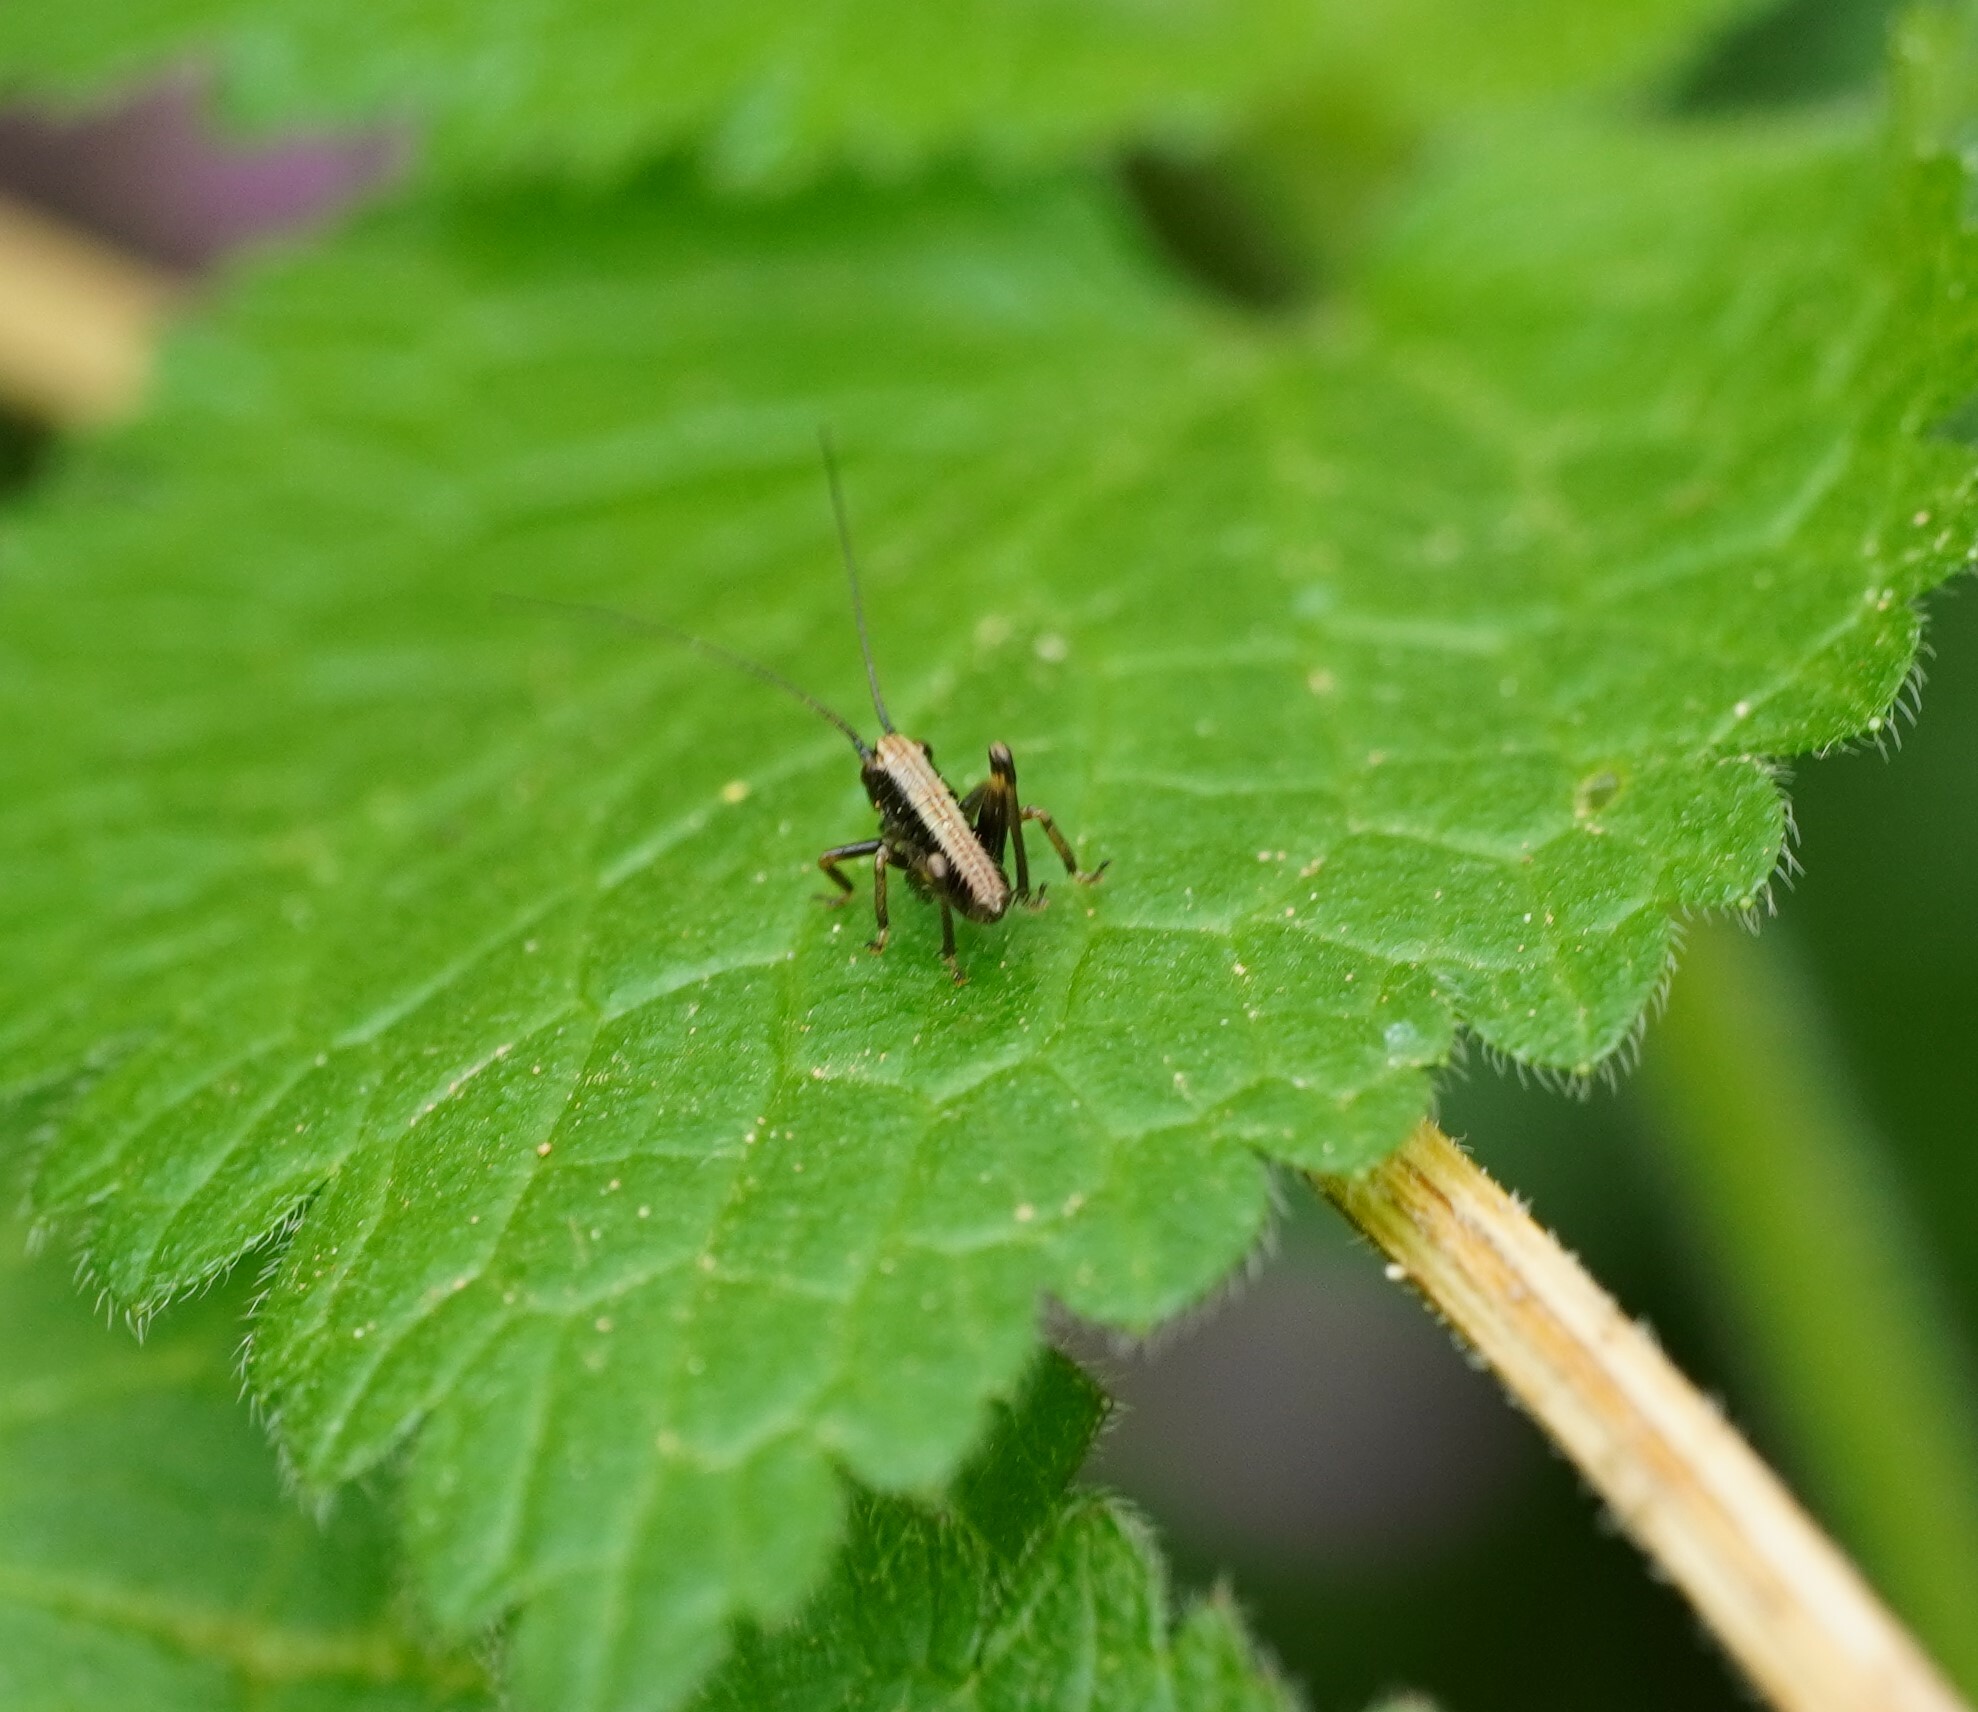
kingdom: Animalia
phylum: Arthropoda
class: Insecta
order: Orthoptera
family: Tettigoniidae
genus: Pholidoptera
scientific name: Pholidoptera griseoaptera
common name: Dark bush-cricket
